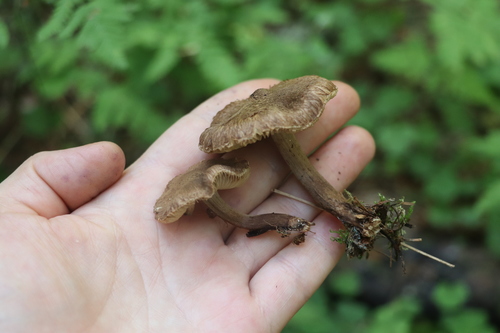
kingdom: Fungi
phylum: Basidiomycota
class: Agaricomycetes
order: Agaricales
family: Inocybaceae
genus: Inocybe
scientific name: Inocybe soluta
